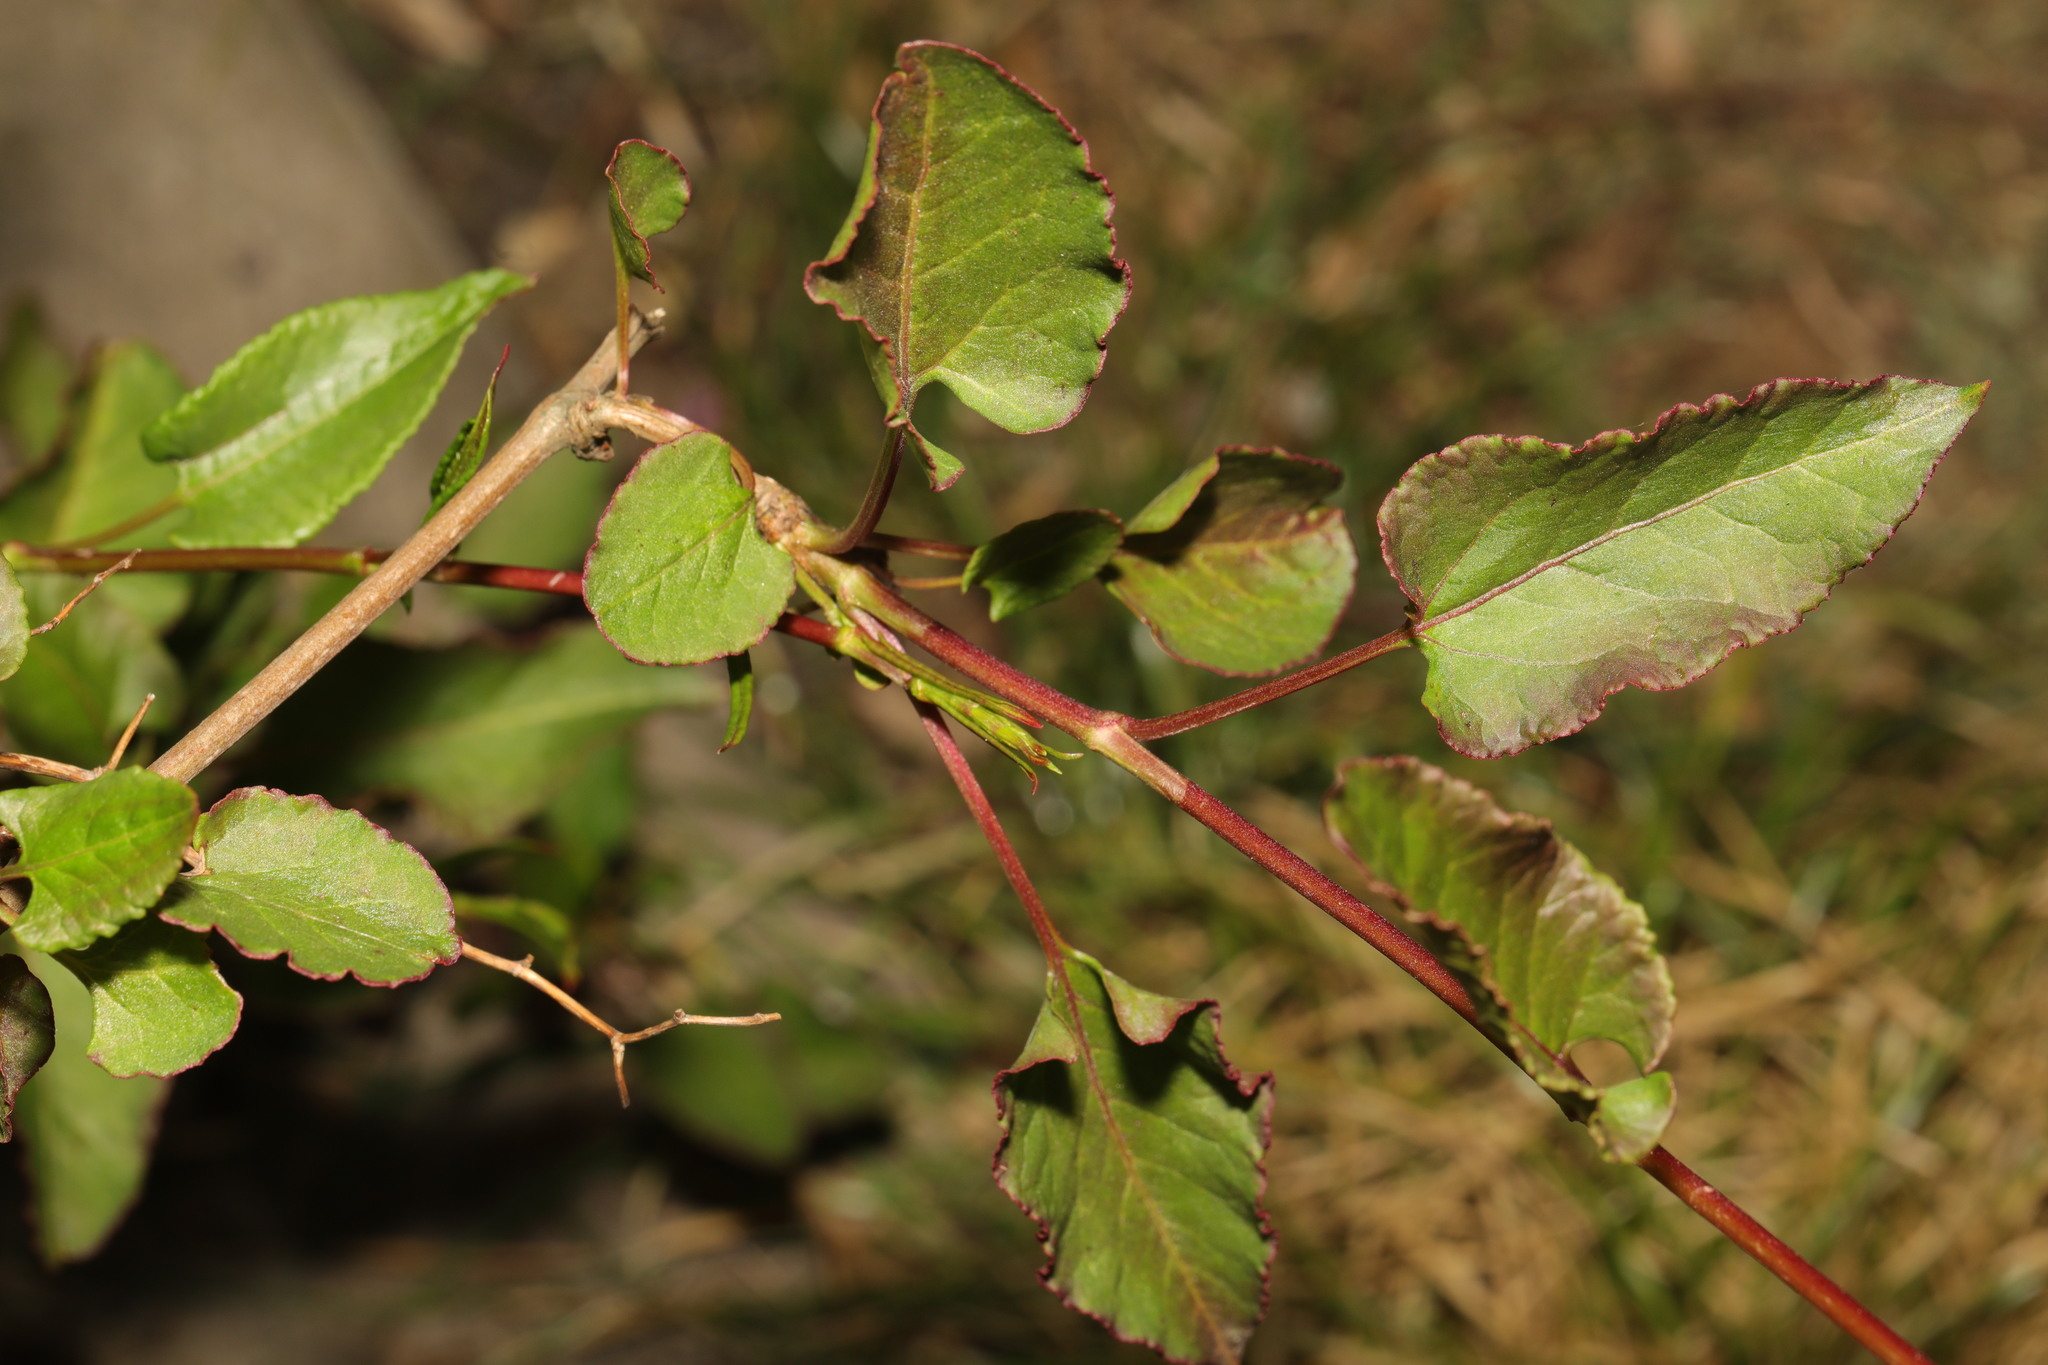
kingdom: Plantae
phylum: Tracheophyta
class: Magnoliopsida
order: Caryophyllales
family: Polygonaceae
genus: Fallopia
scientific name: Fallopia baldschuanica
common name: Russian-vine
